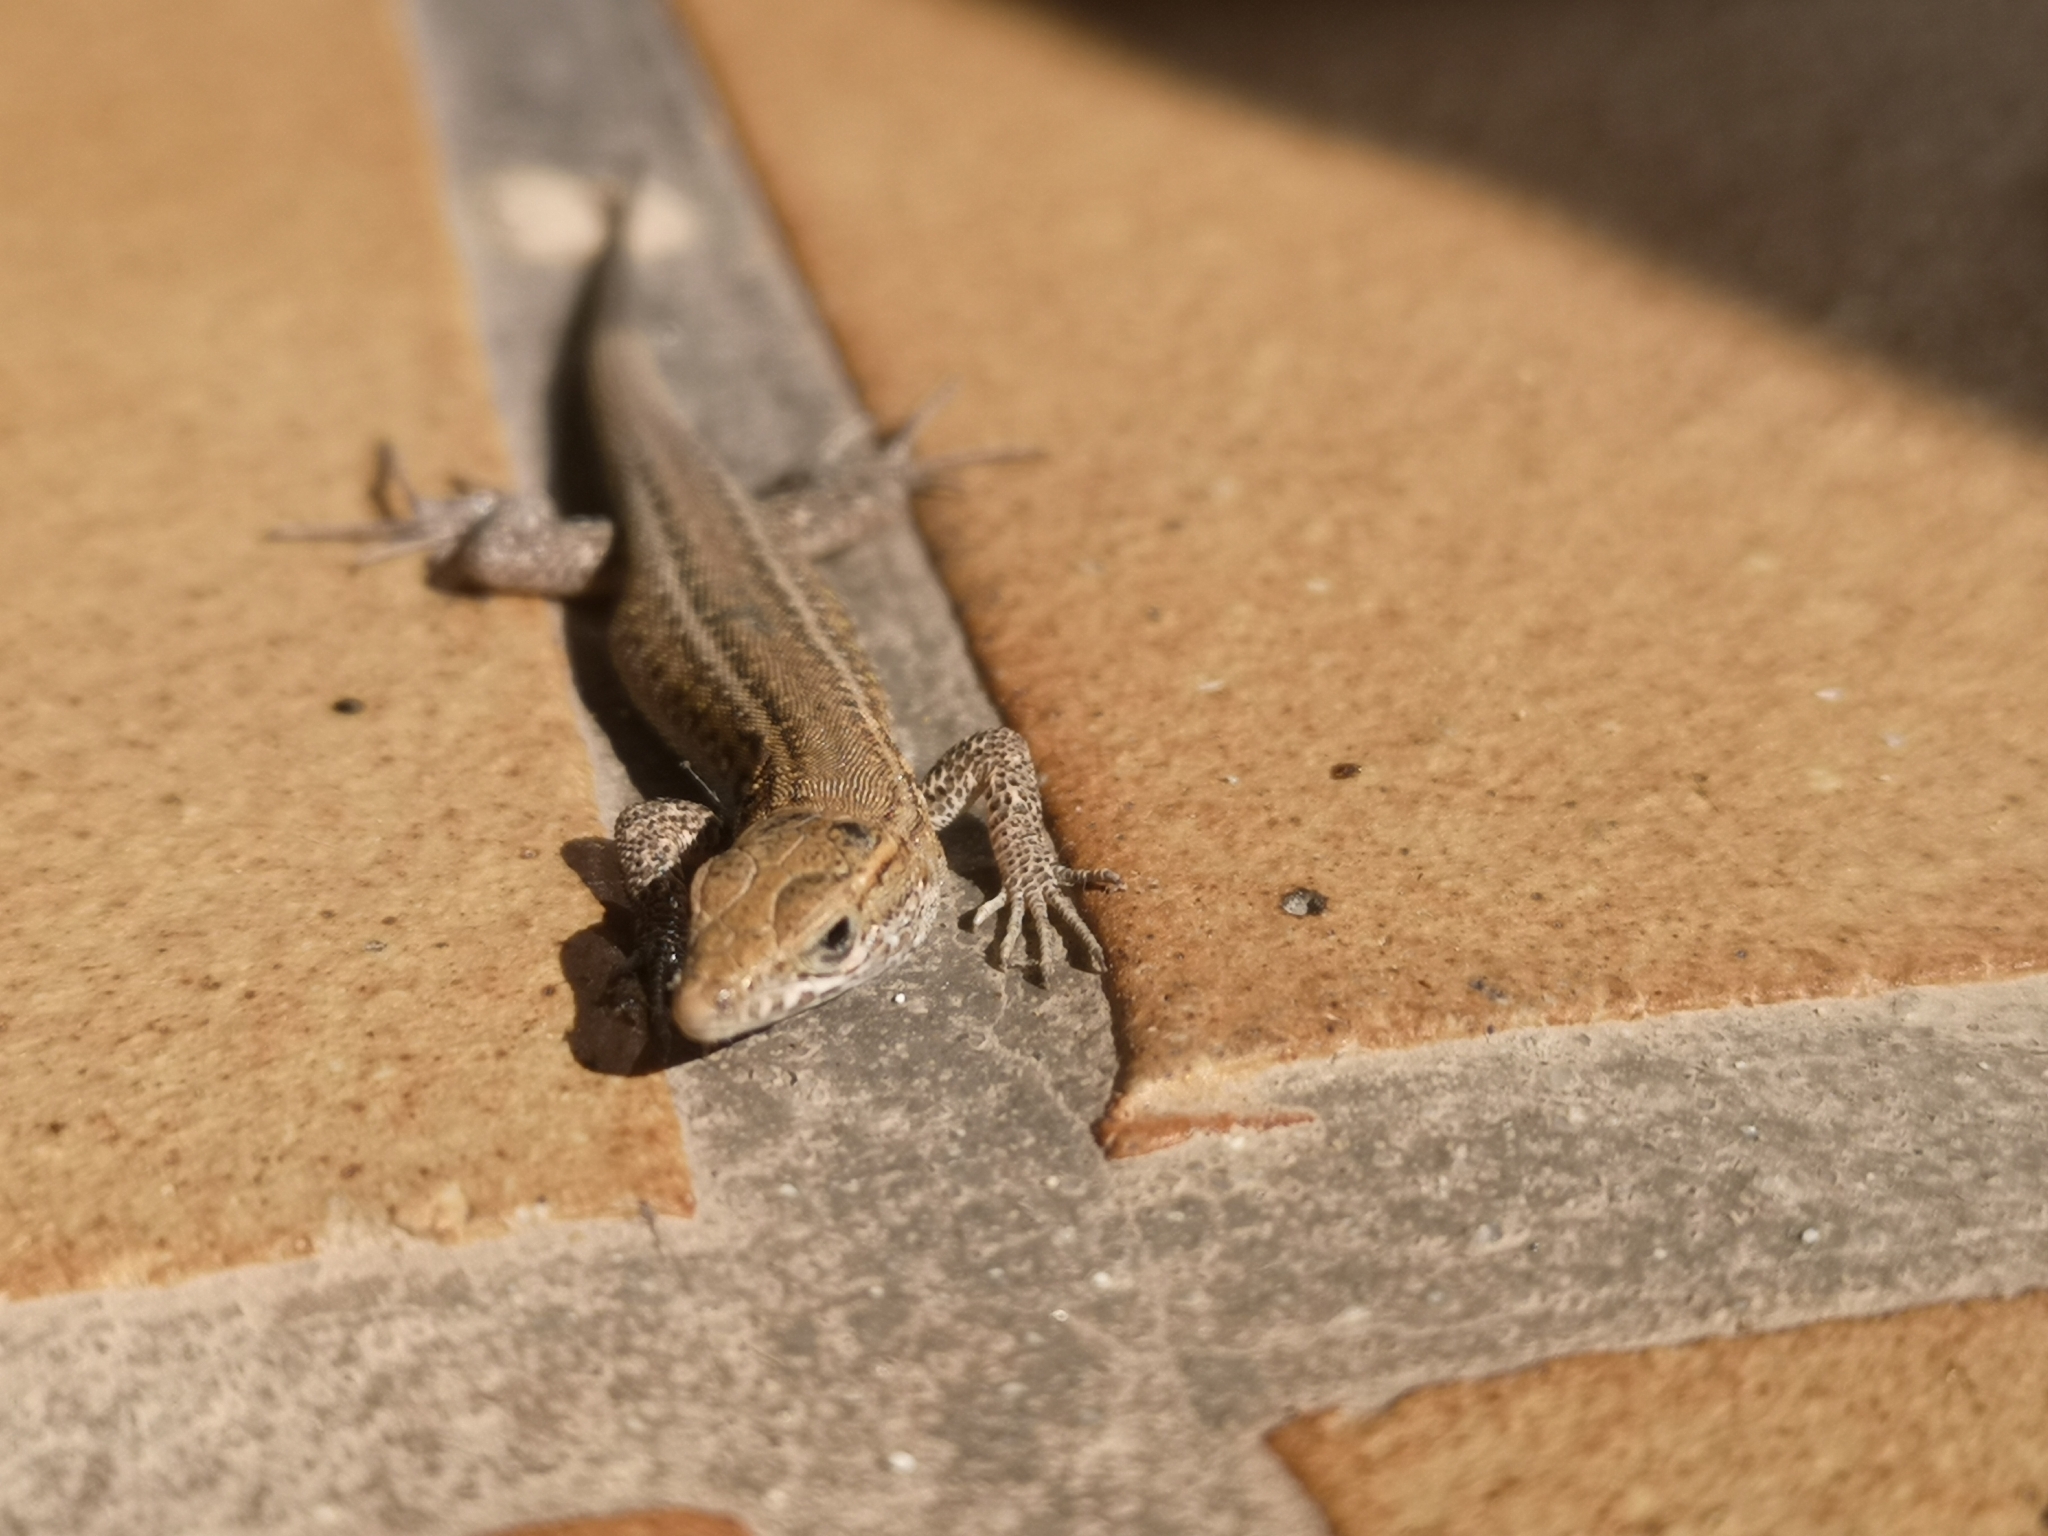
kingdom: Animalia
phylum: Chordata
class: Squamata
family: Lacertidae
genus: Gallotia
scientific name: Gallotia atlantica
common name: Atlantic lizard
